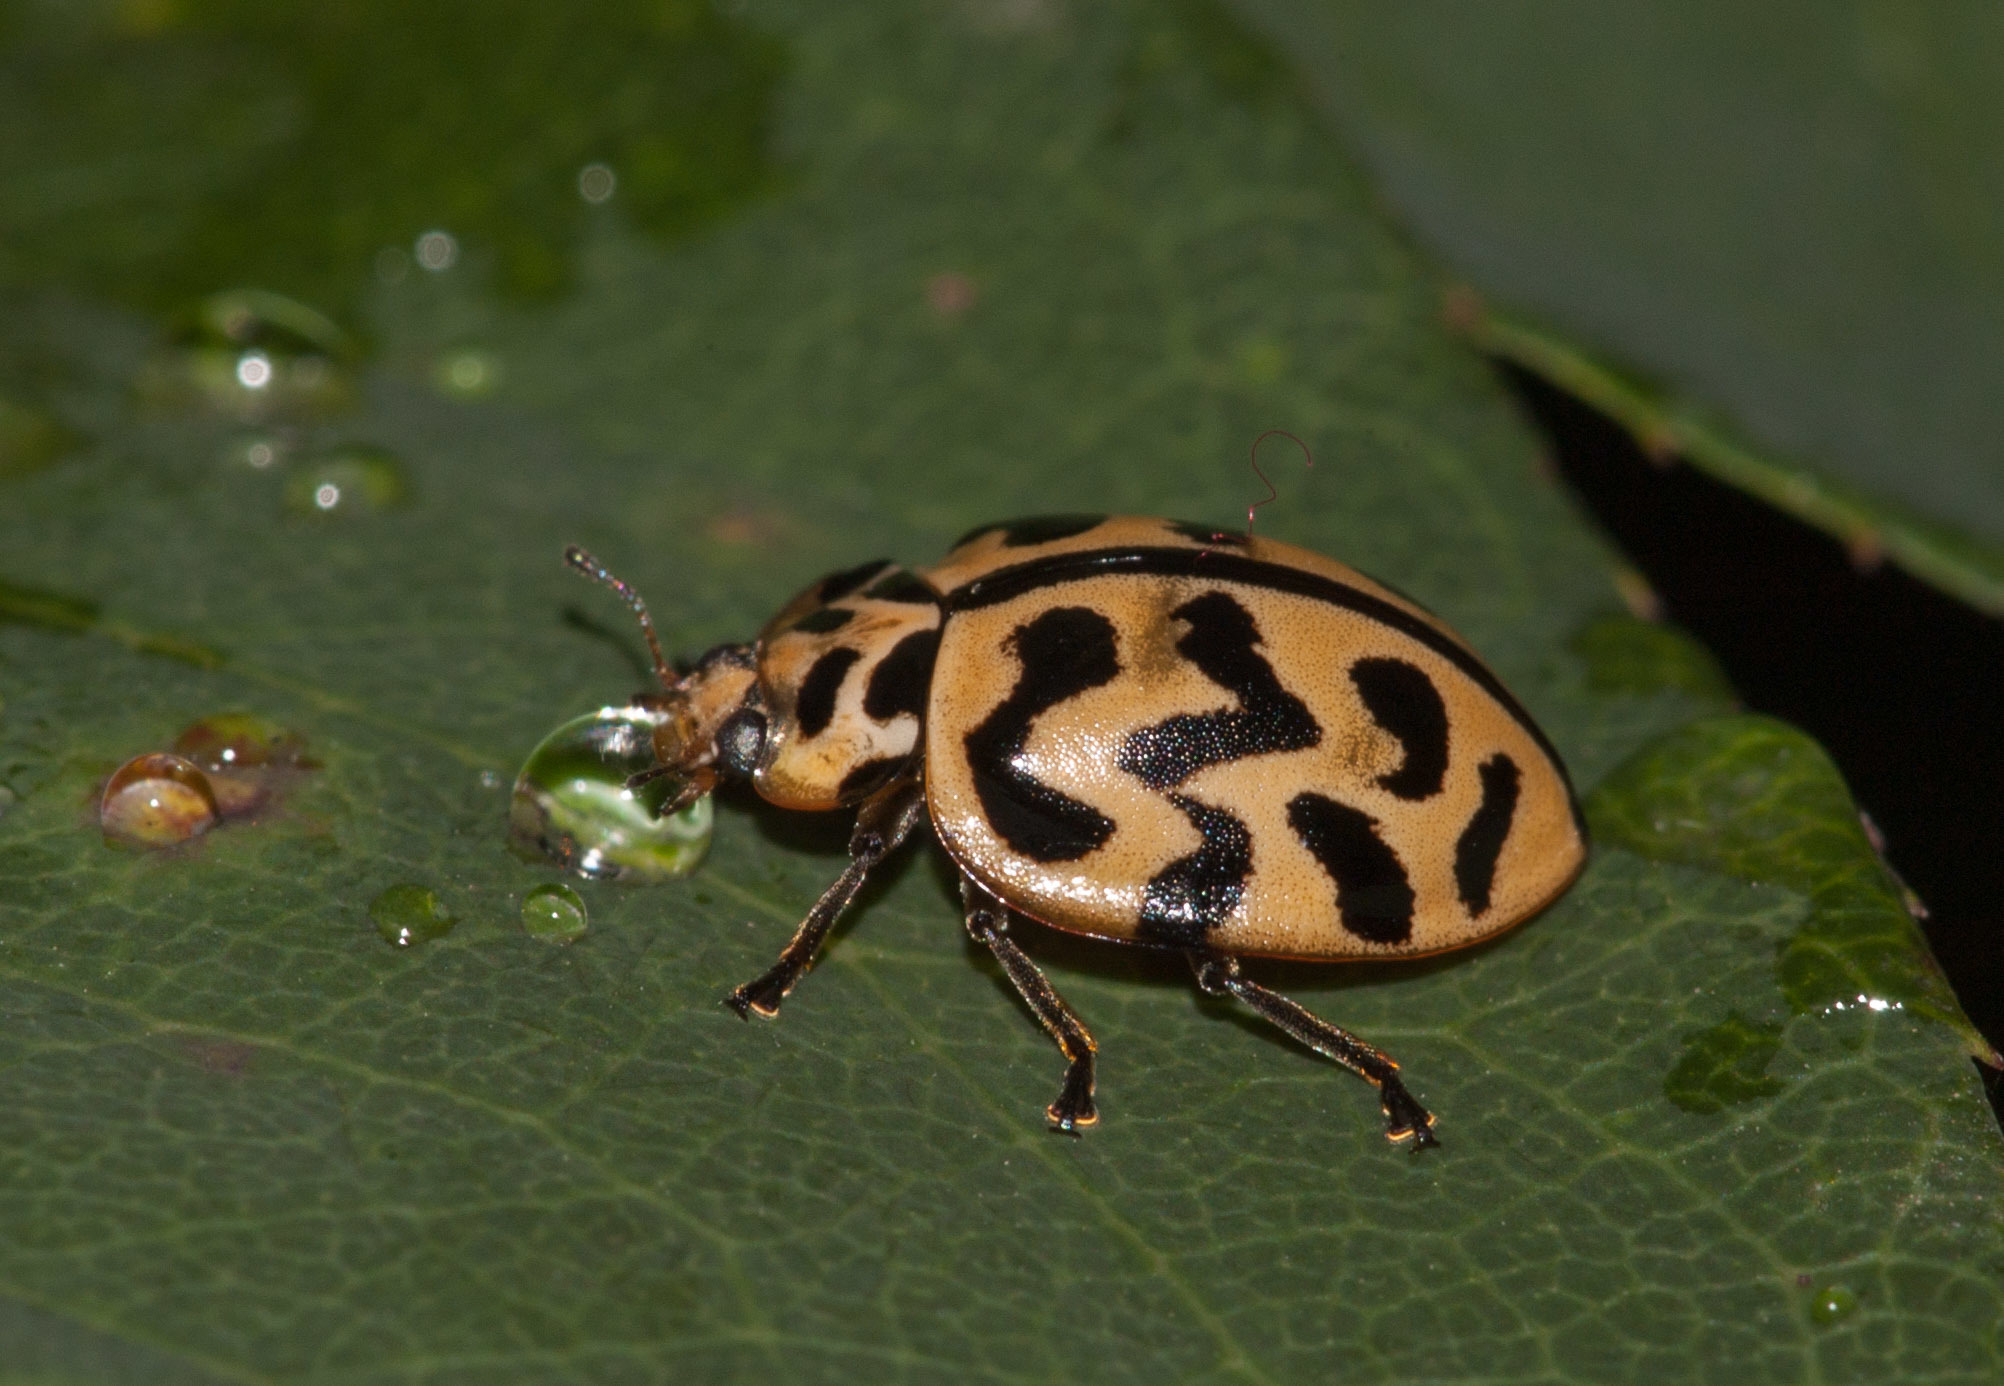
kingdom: Animalia
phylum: Arthropoda
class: Insecta
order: Coleoptera
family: Coccinellidae
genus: Cleobora
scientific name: Cleobora
